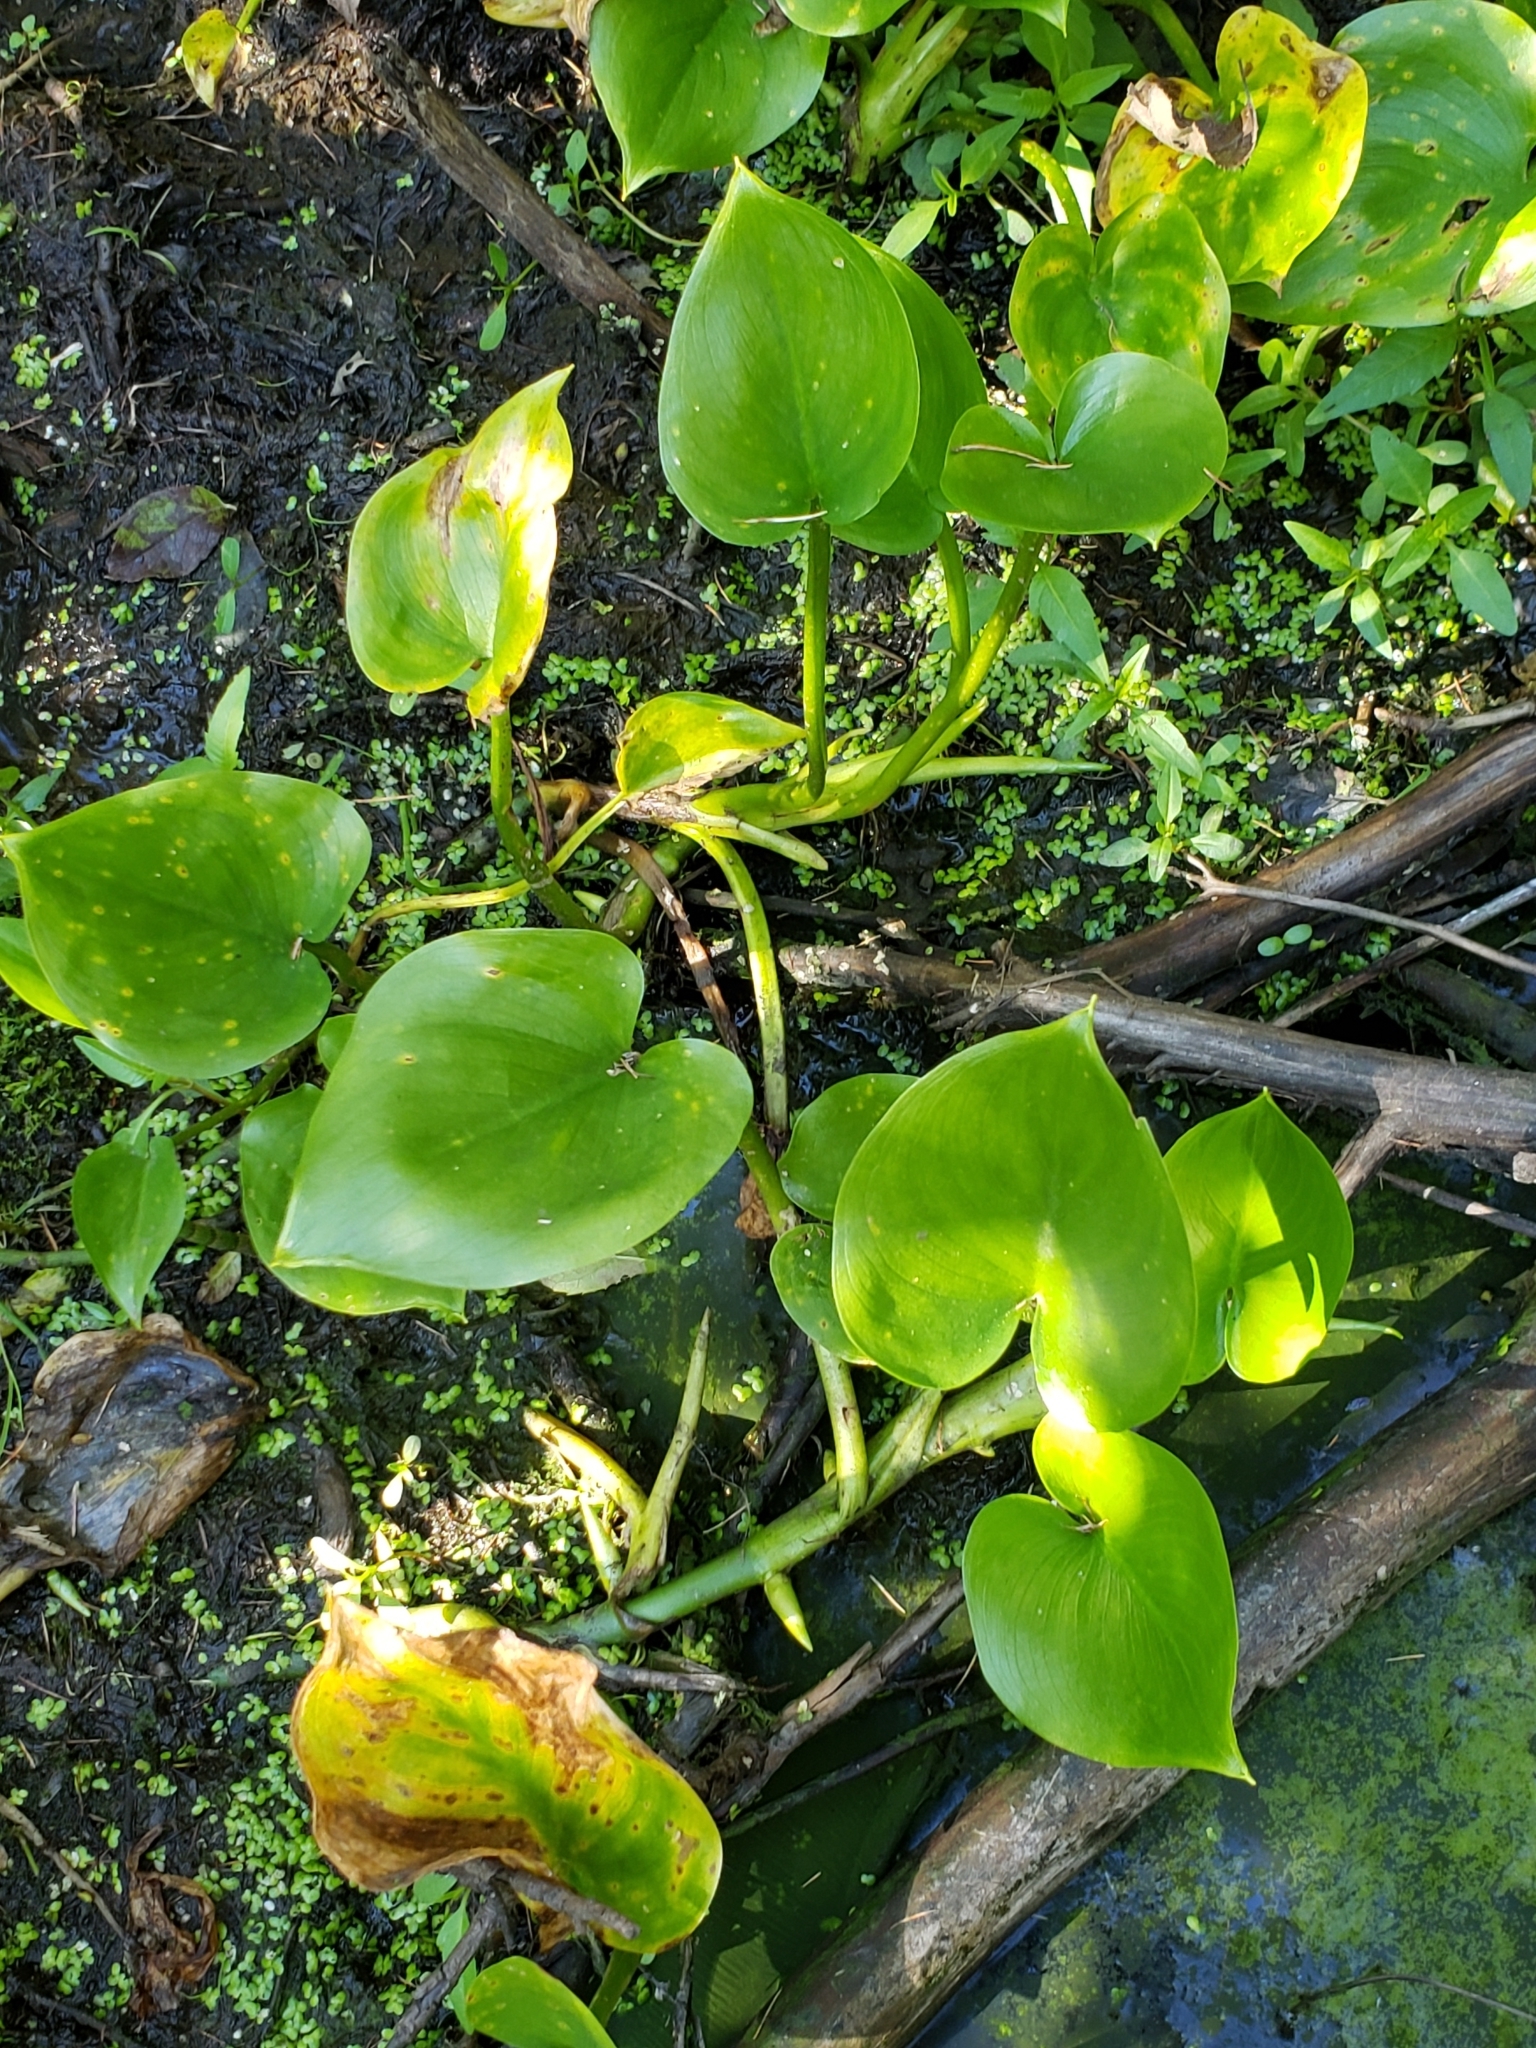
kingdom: Plantae
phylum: Tracheophyta
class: Liliopsida
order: Alismatales
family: Araceae
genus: Calla
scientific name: Calla palustris
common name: Bog arum
